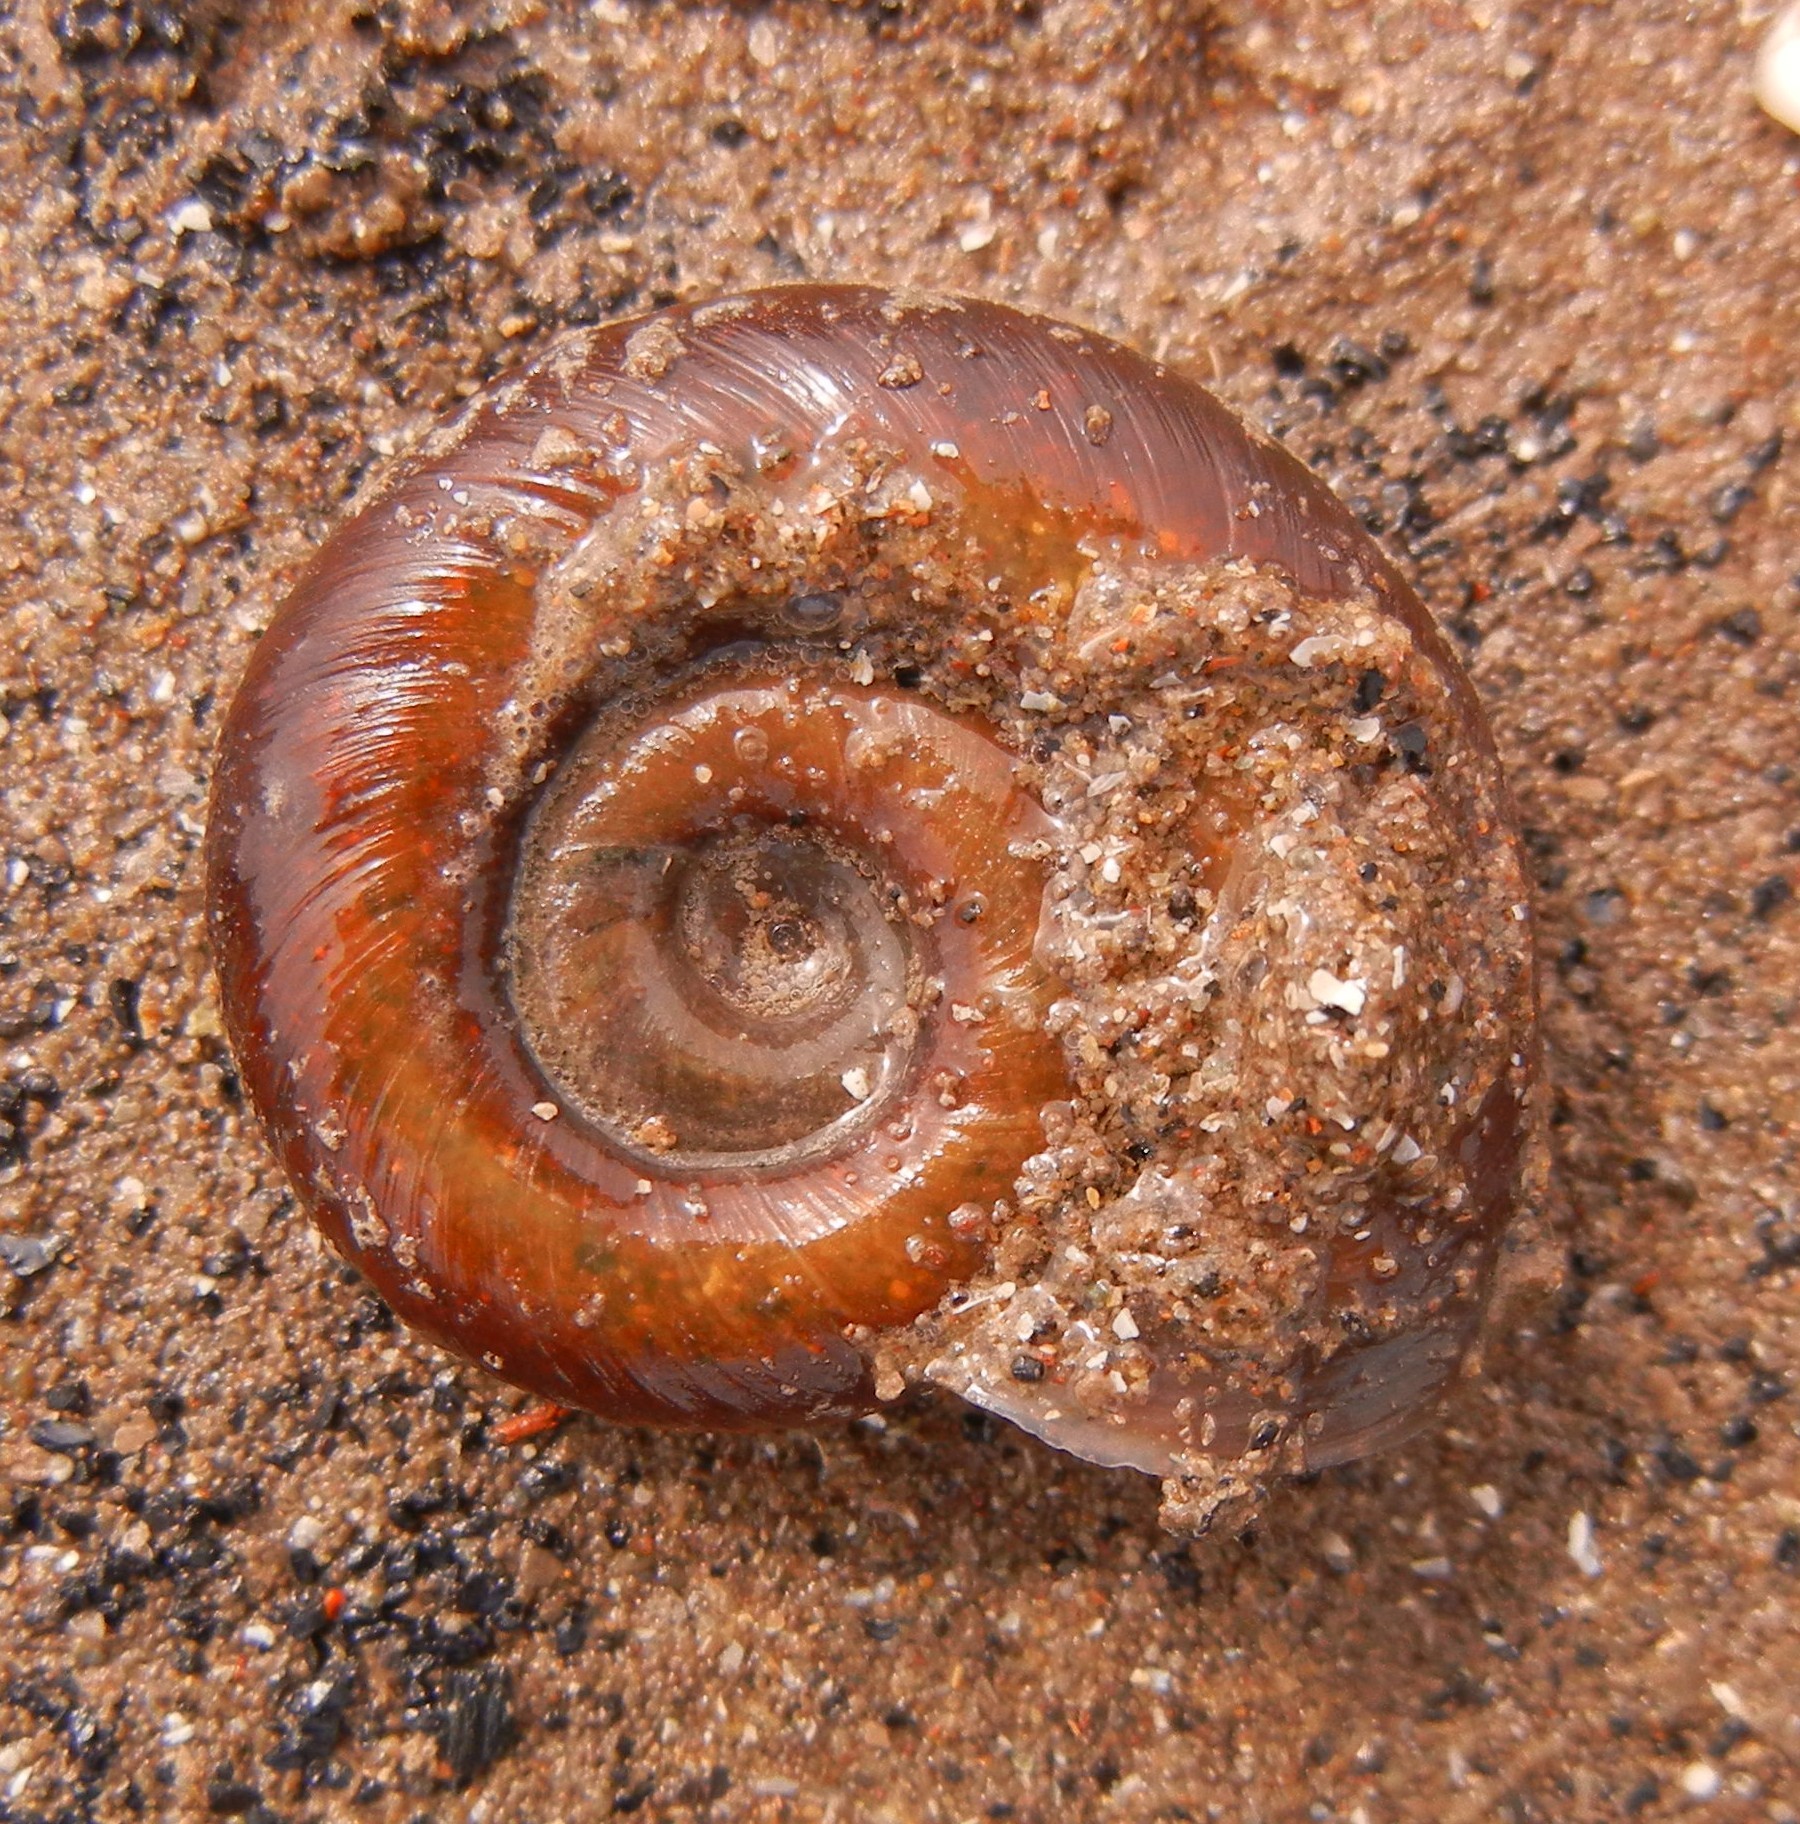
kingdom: Animalia
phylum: Mollusca
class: Gastropoda
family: Planorbidae
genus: Planorbarius
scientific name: Planorbarius corneus
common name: Great ramshorn
